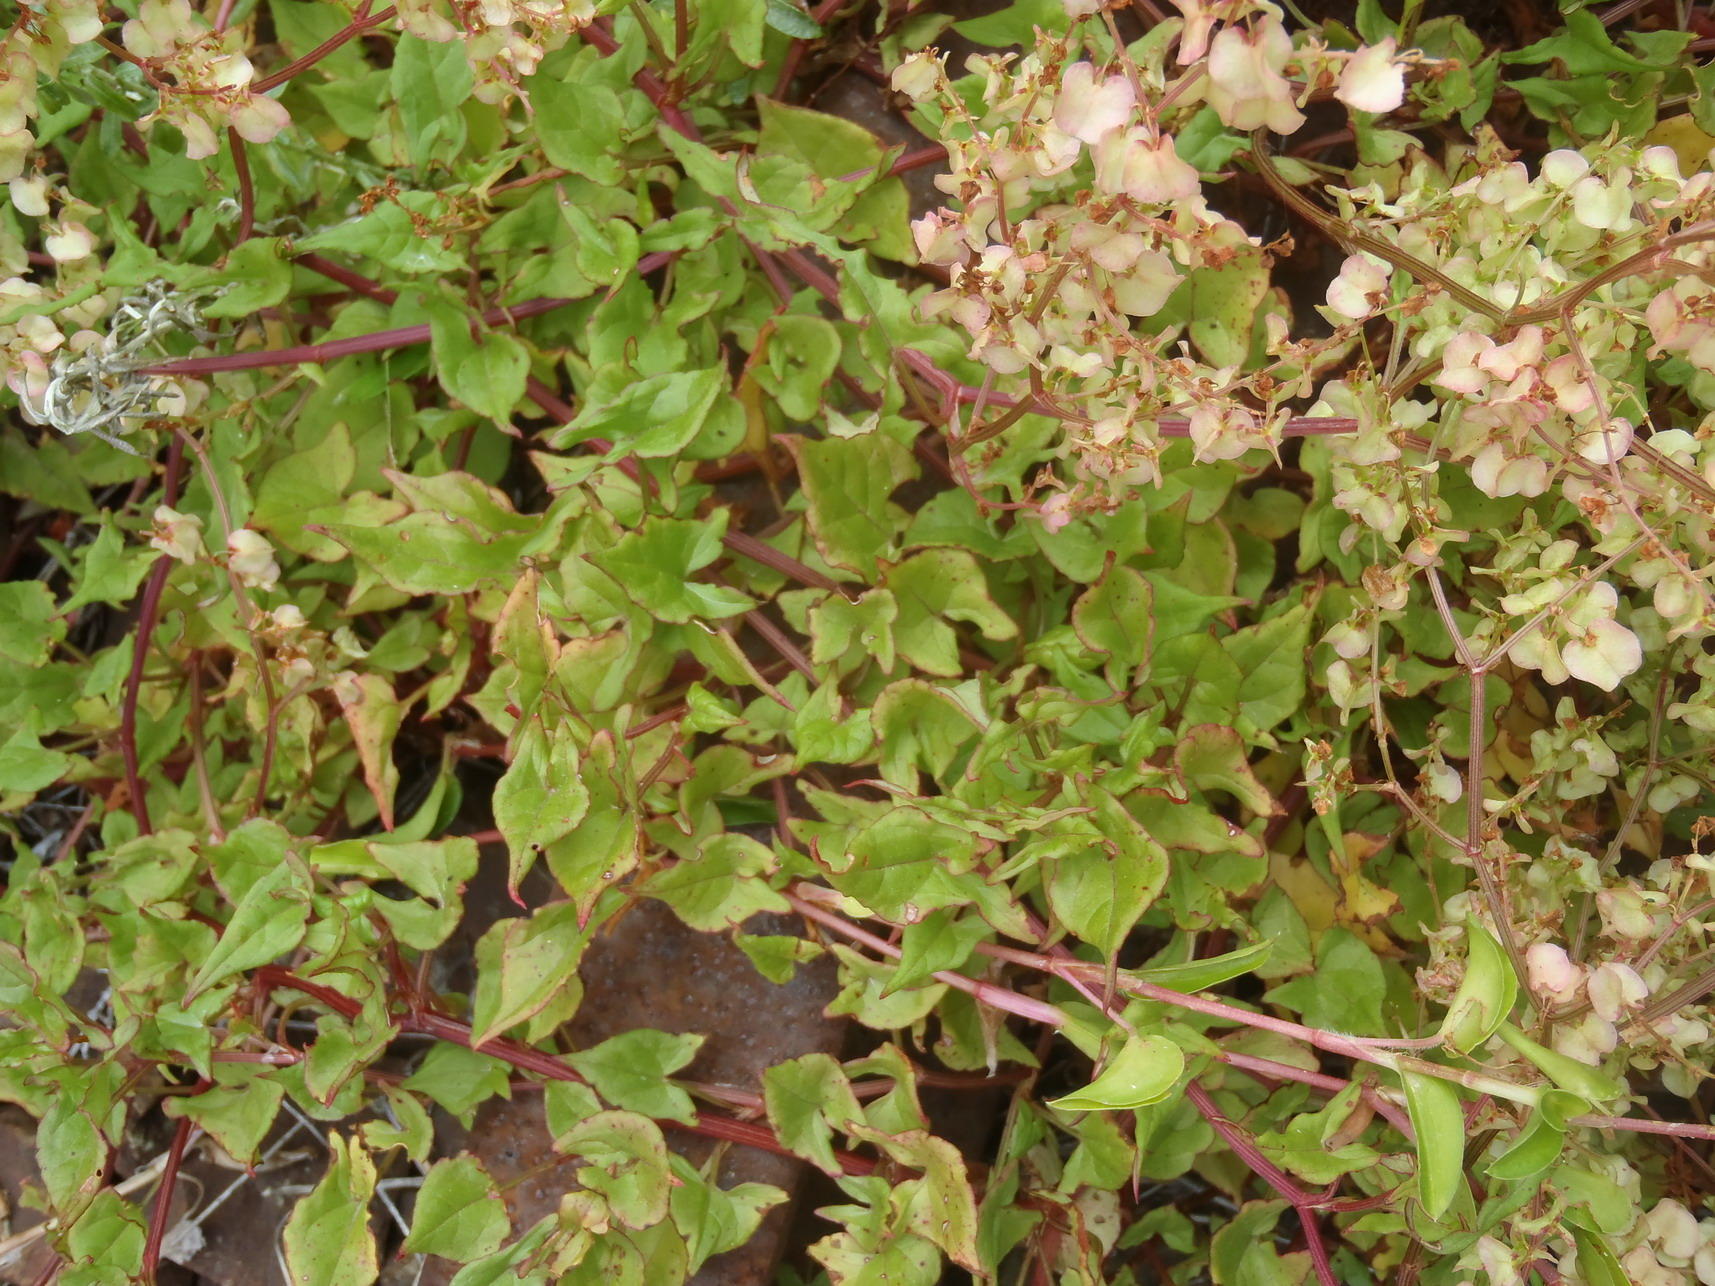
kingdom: Plantae
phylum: Tracheophyta
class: Magnoliopsida
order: Caryophyllales
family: Polygonaceae
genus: Rumex
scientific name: Rumex sagittatus
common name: Climbing dock
